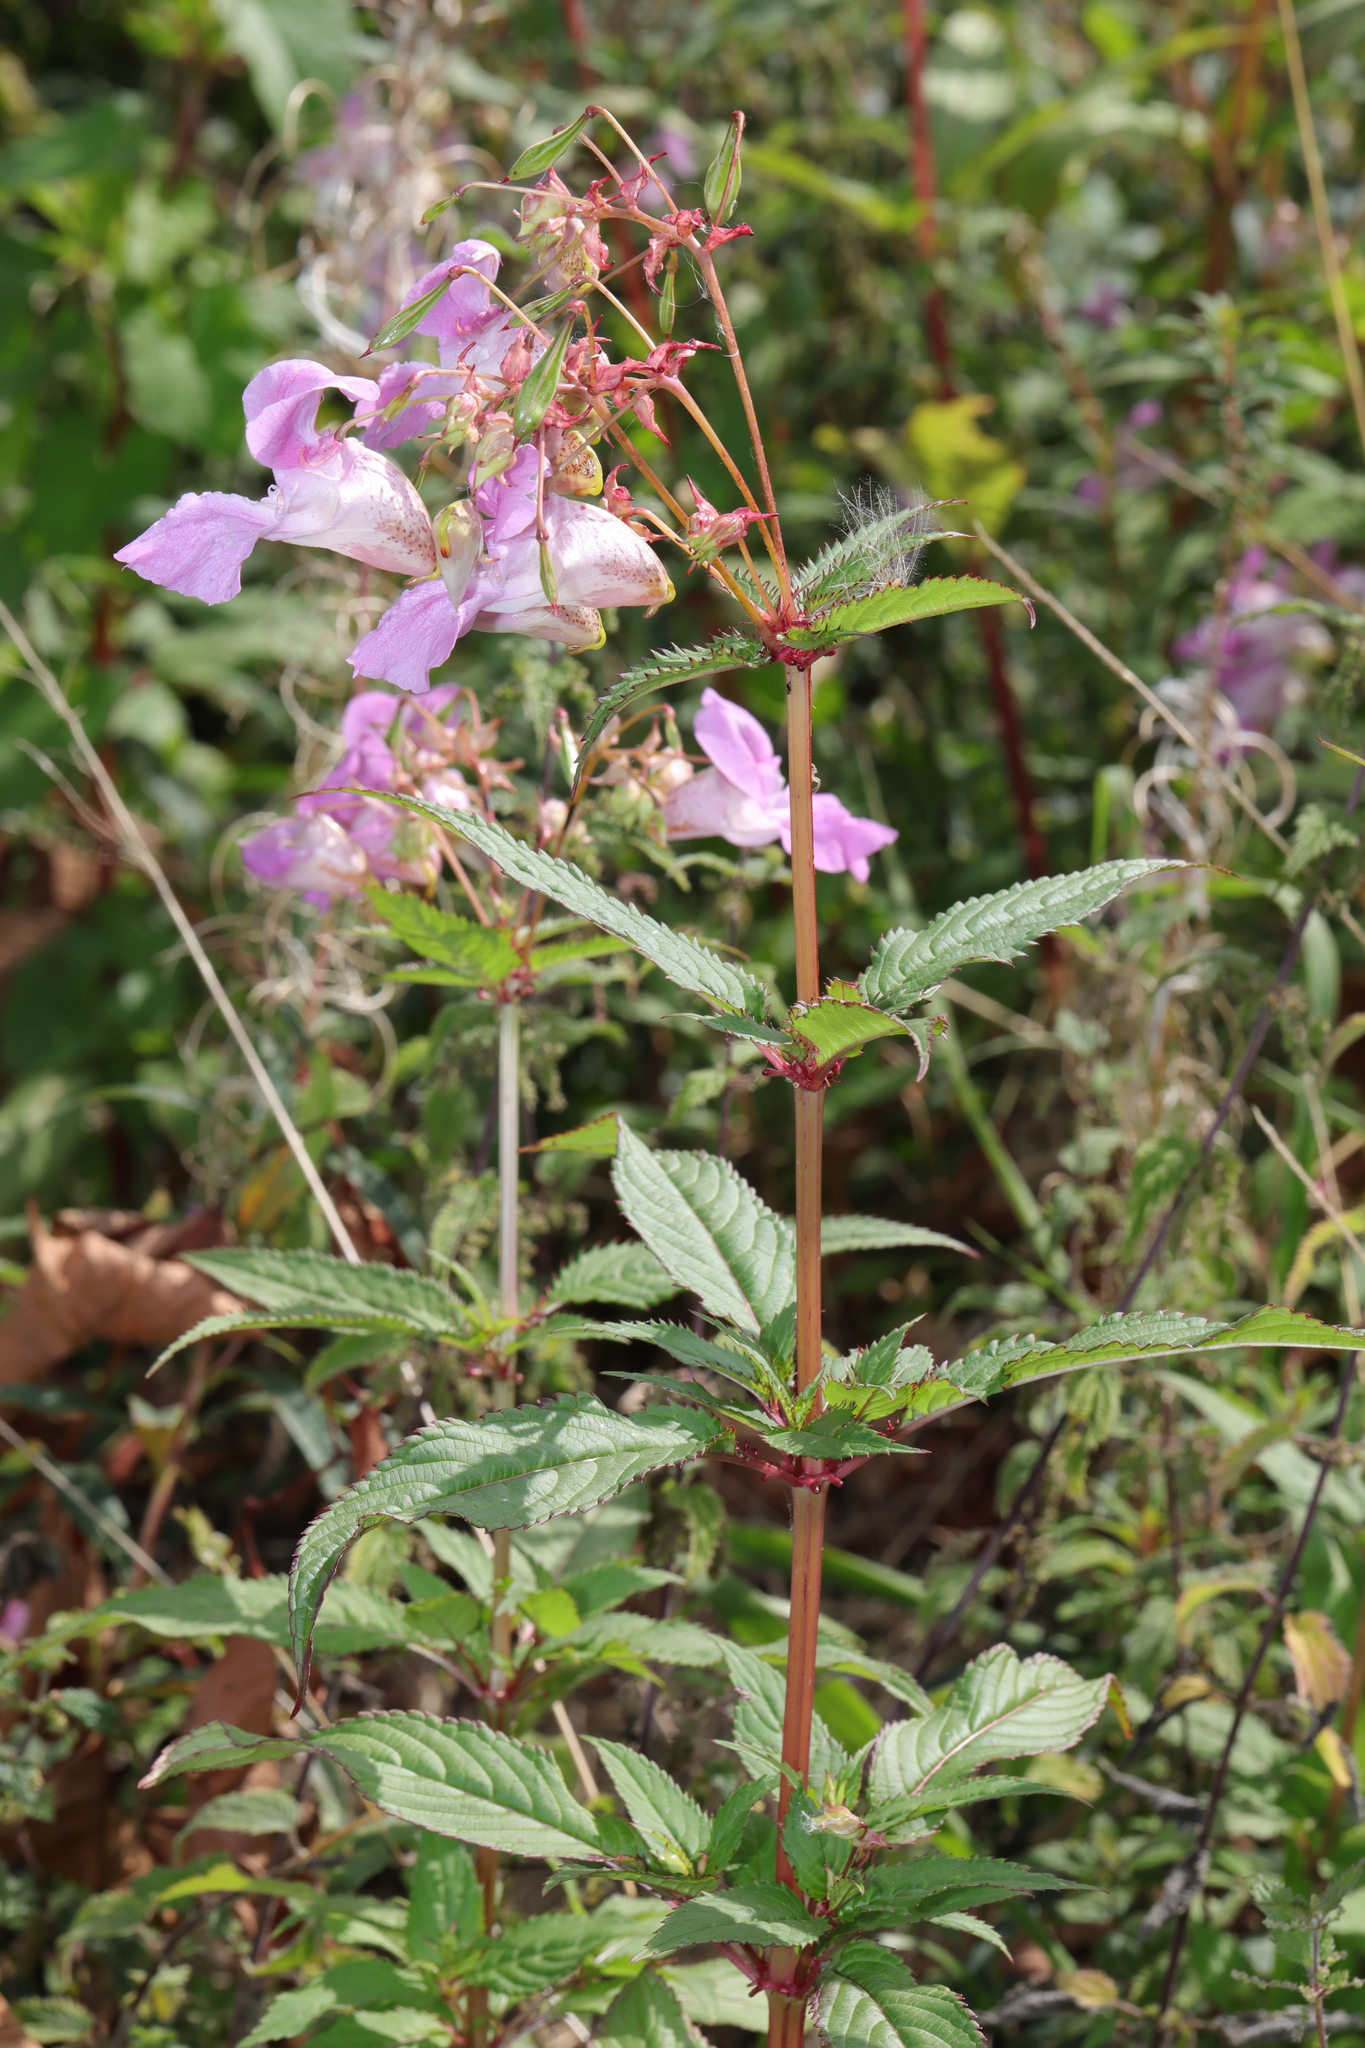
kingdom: Plantae
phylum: Tracheophyta
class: Magnoliopsida
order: Ericales
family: Balsaminaceae
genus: Impatiens
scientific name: Impatiens glandulifera
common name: Himalayan balsam
